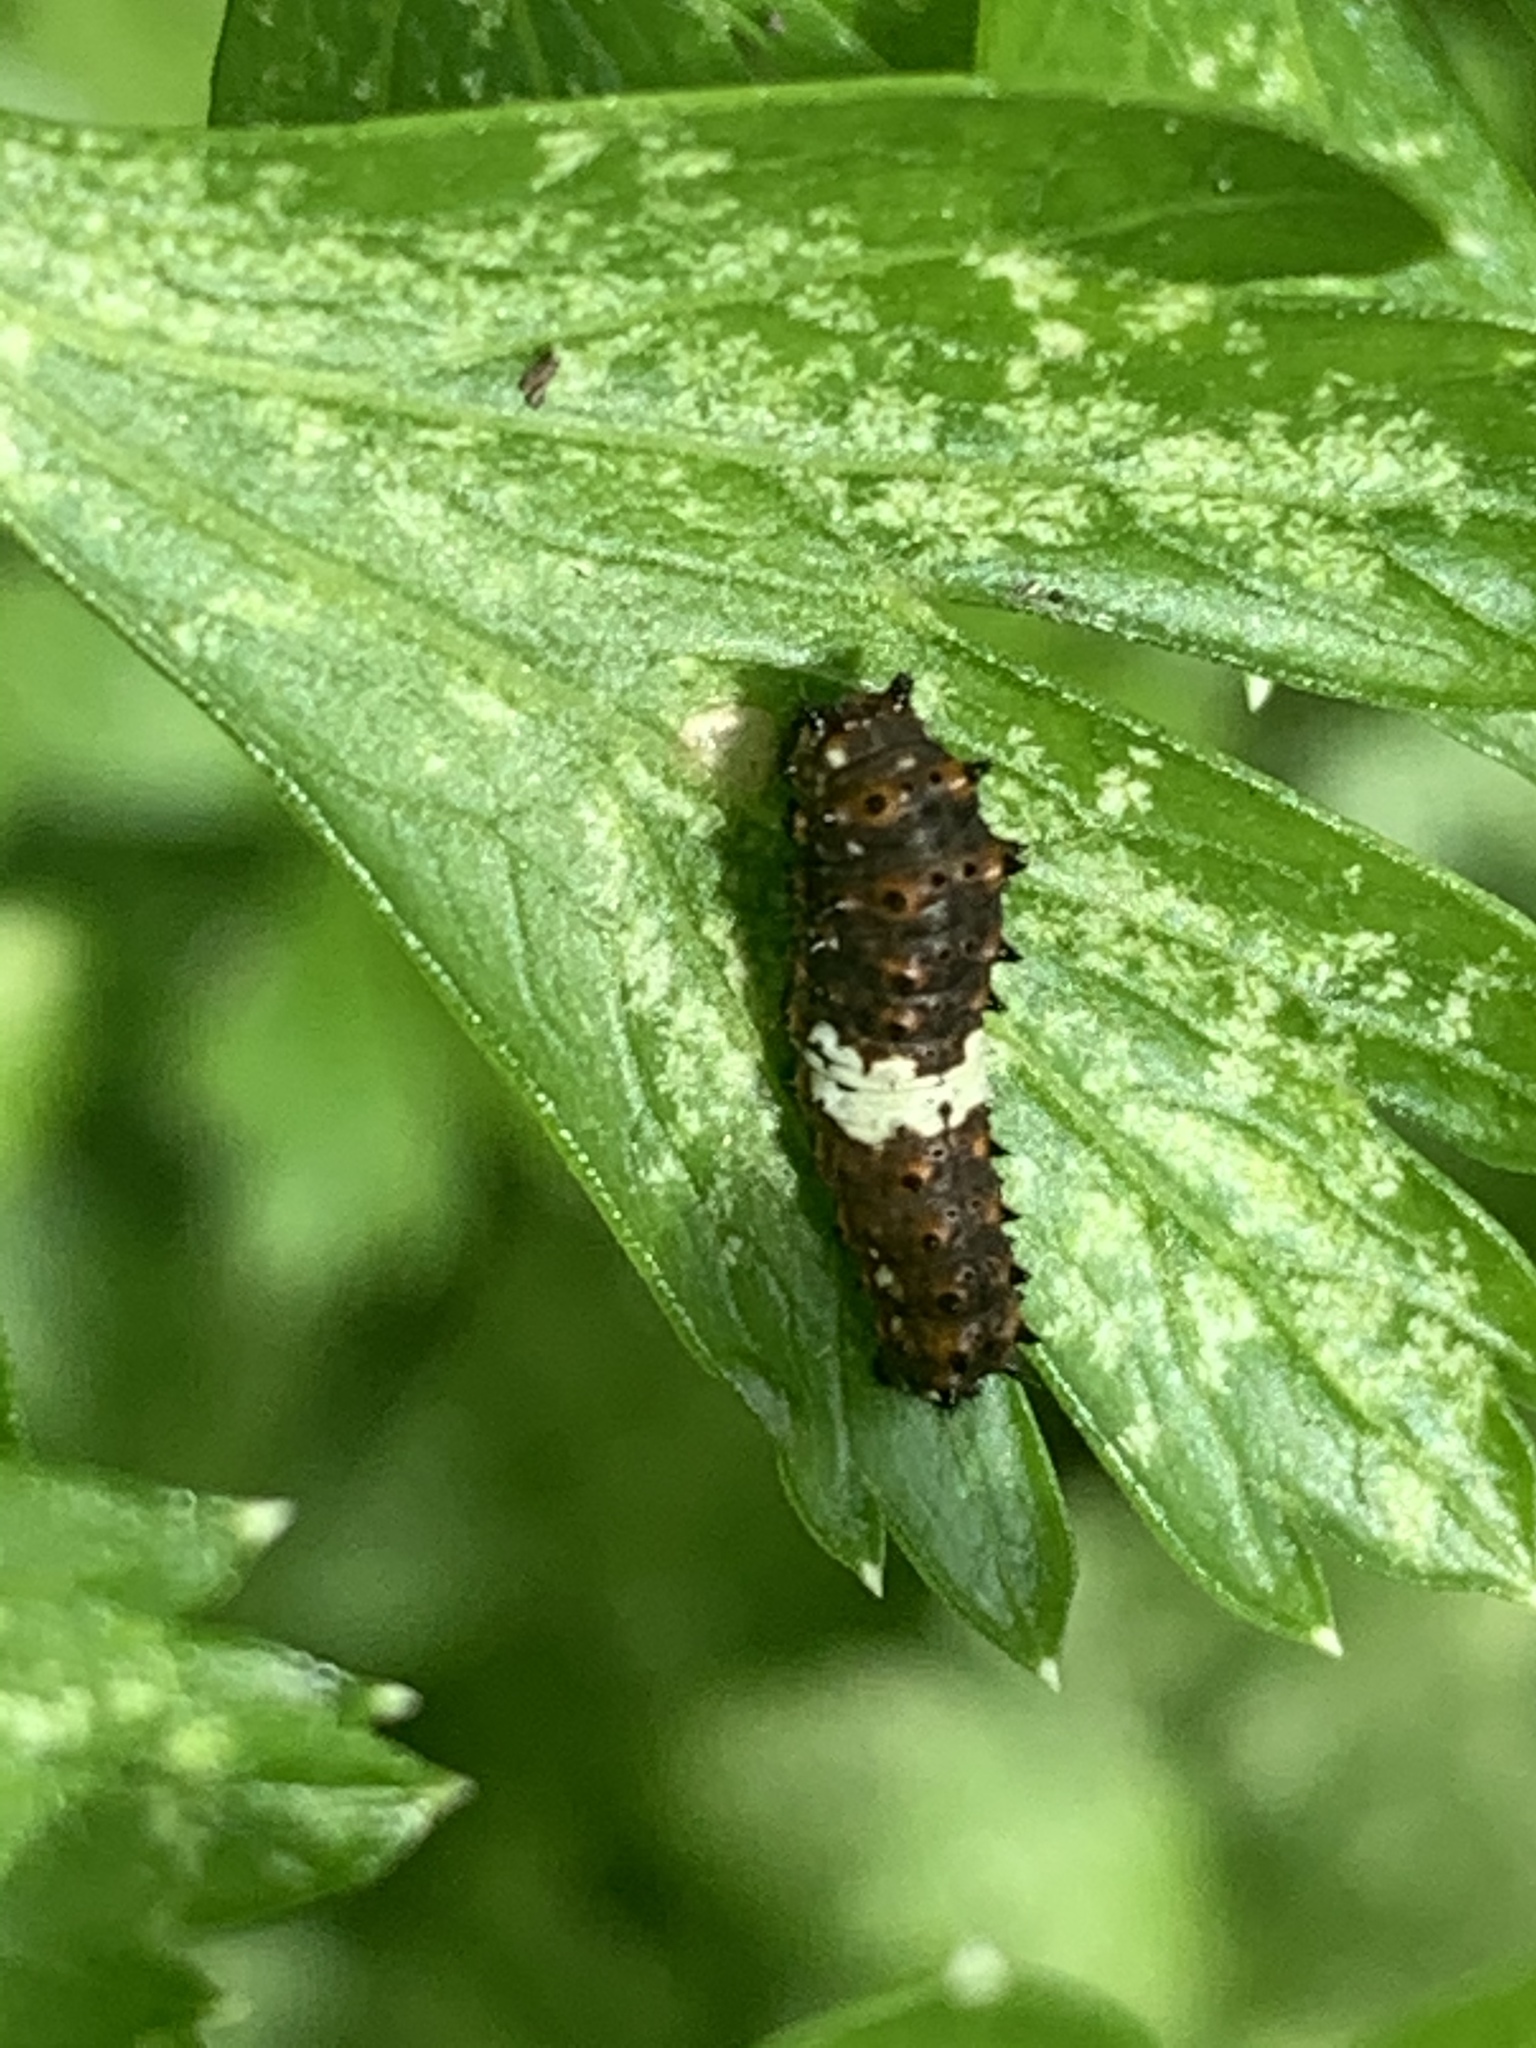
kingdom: Animalia
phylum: Arthropoda
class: Insecta
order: Lepidoptera
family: Papilionidae
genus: Papilio
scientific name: Papilio polyxenes
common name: Black swallowtail
